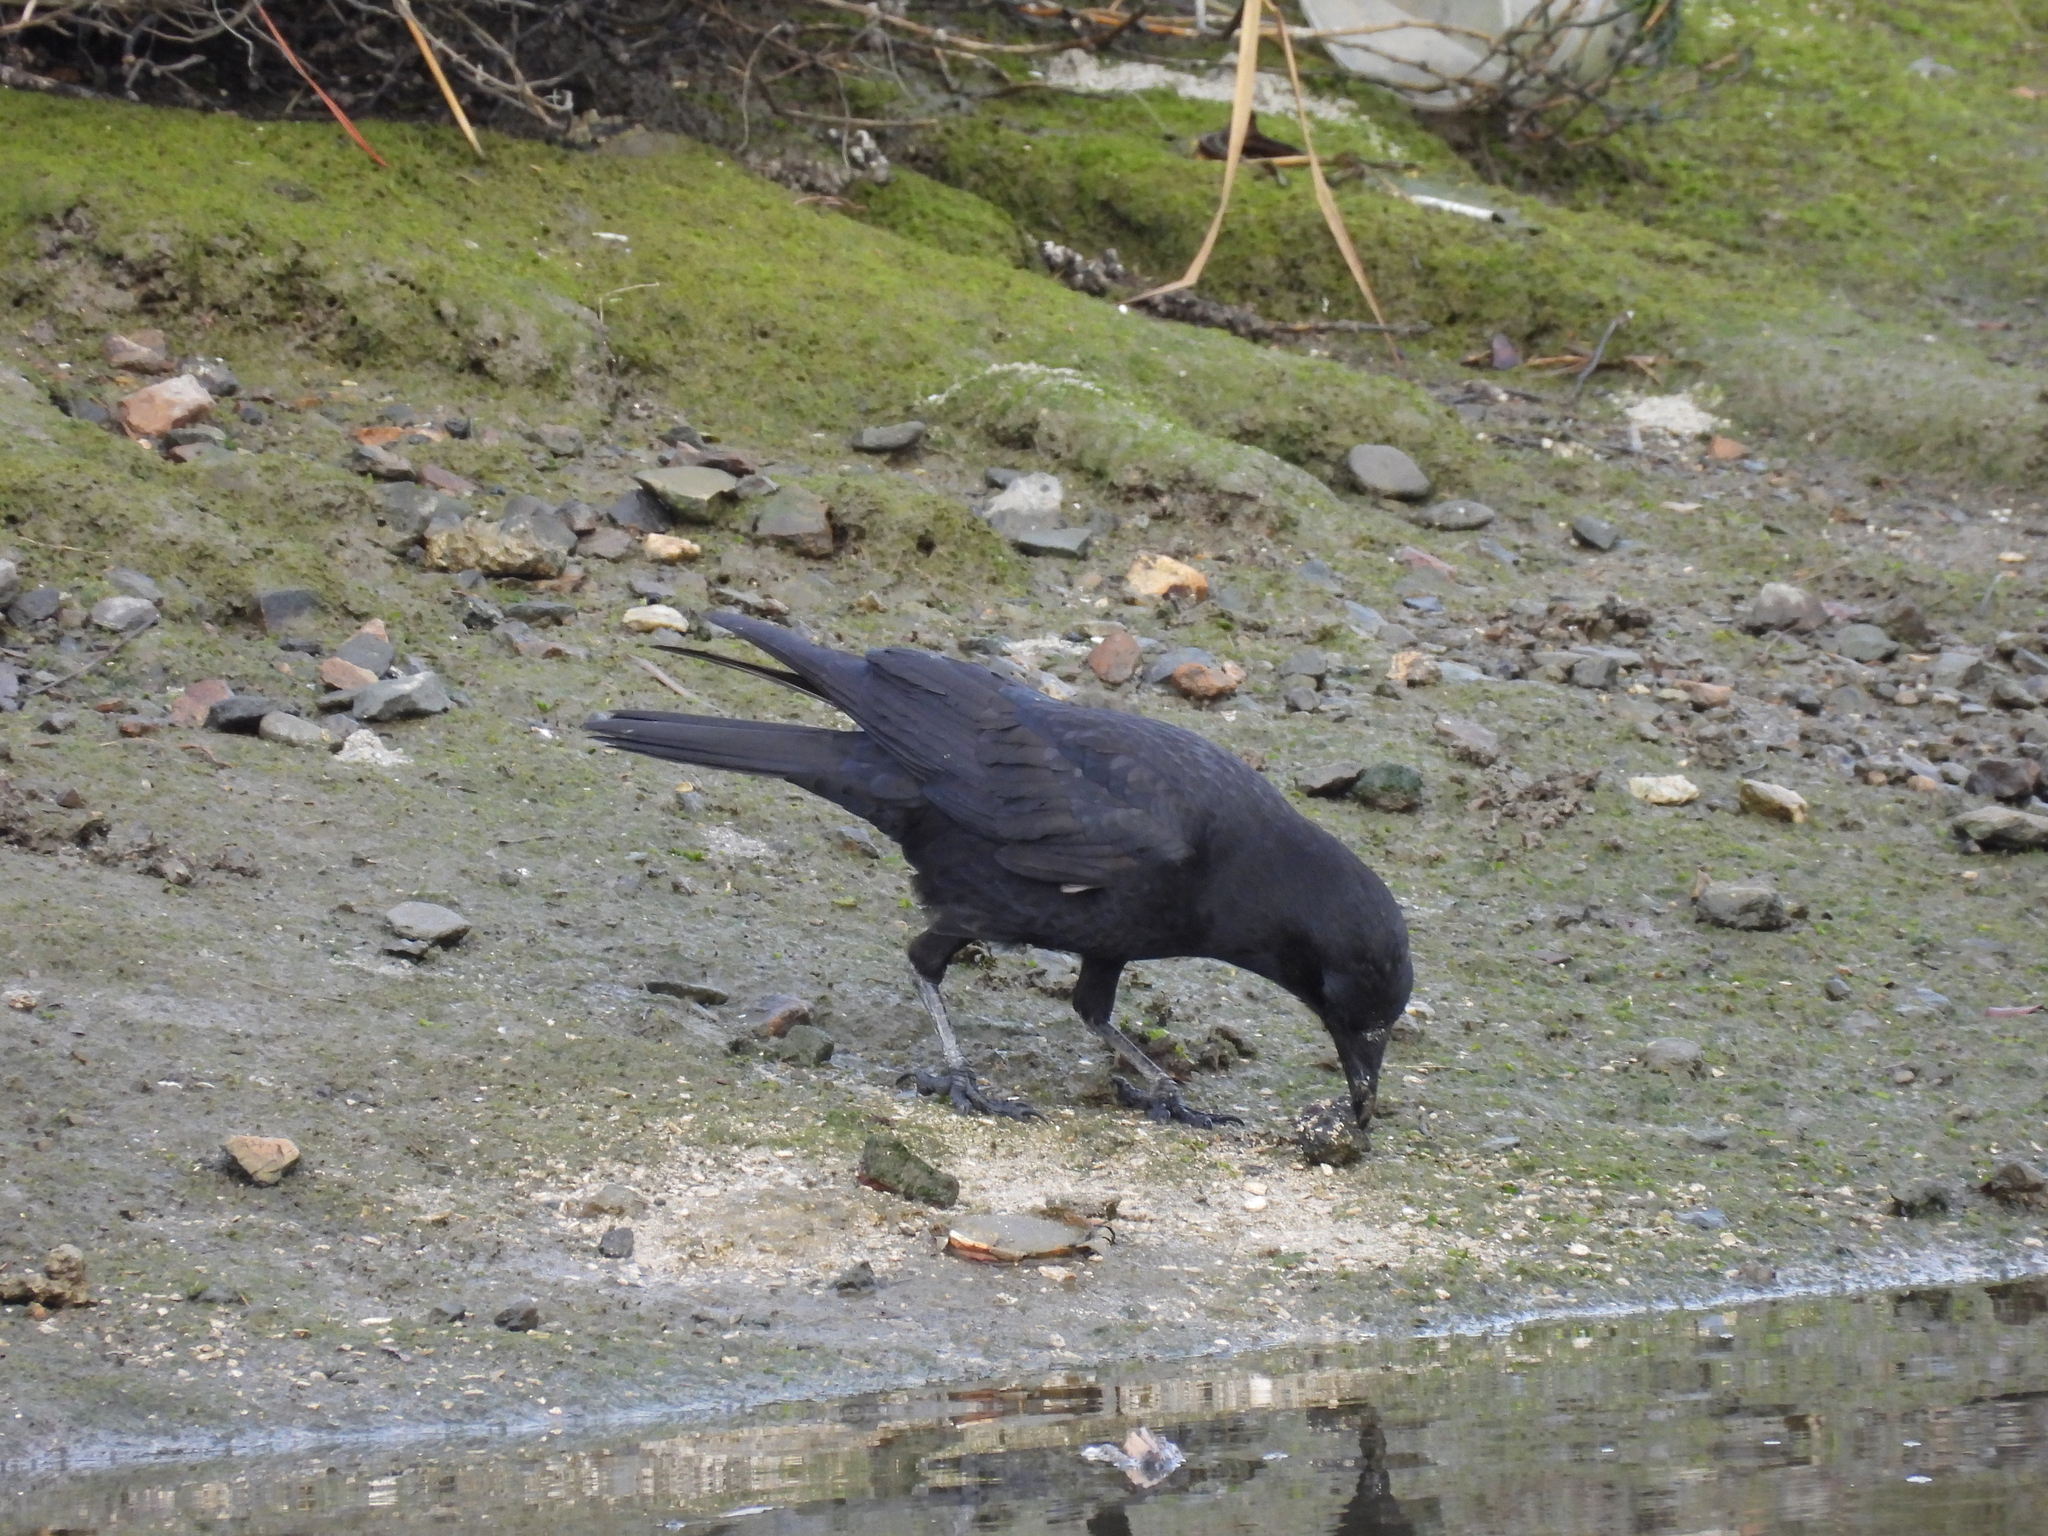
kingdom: Animalia
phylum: Chordata
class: Aves
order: Passeriformes
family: Corvidae
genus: Corvus
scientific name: Corvus brachyrhynchos
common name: American crow
